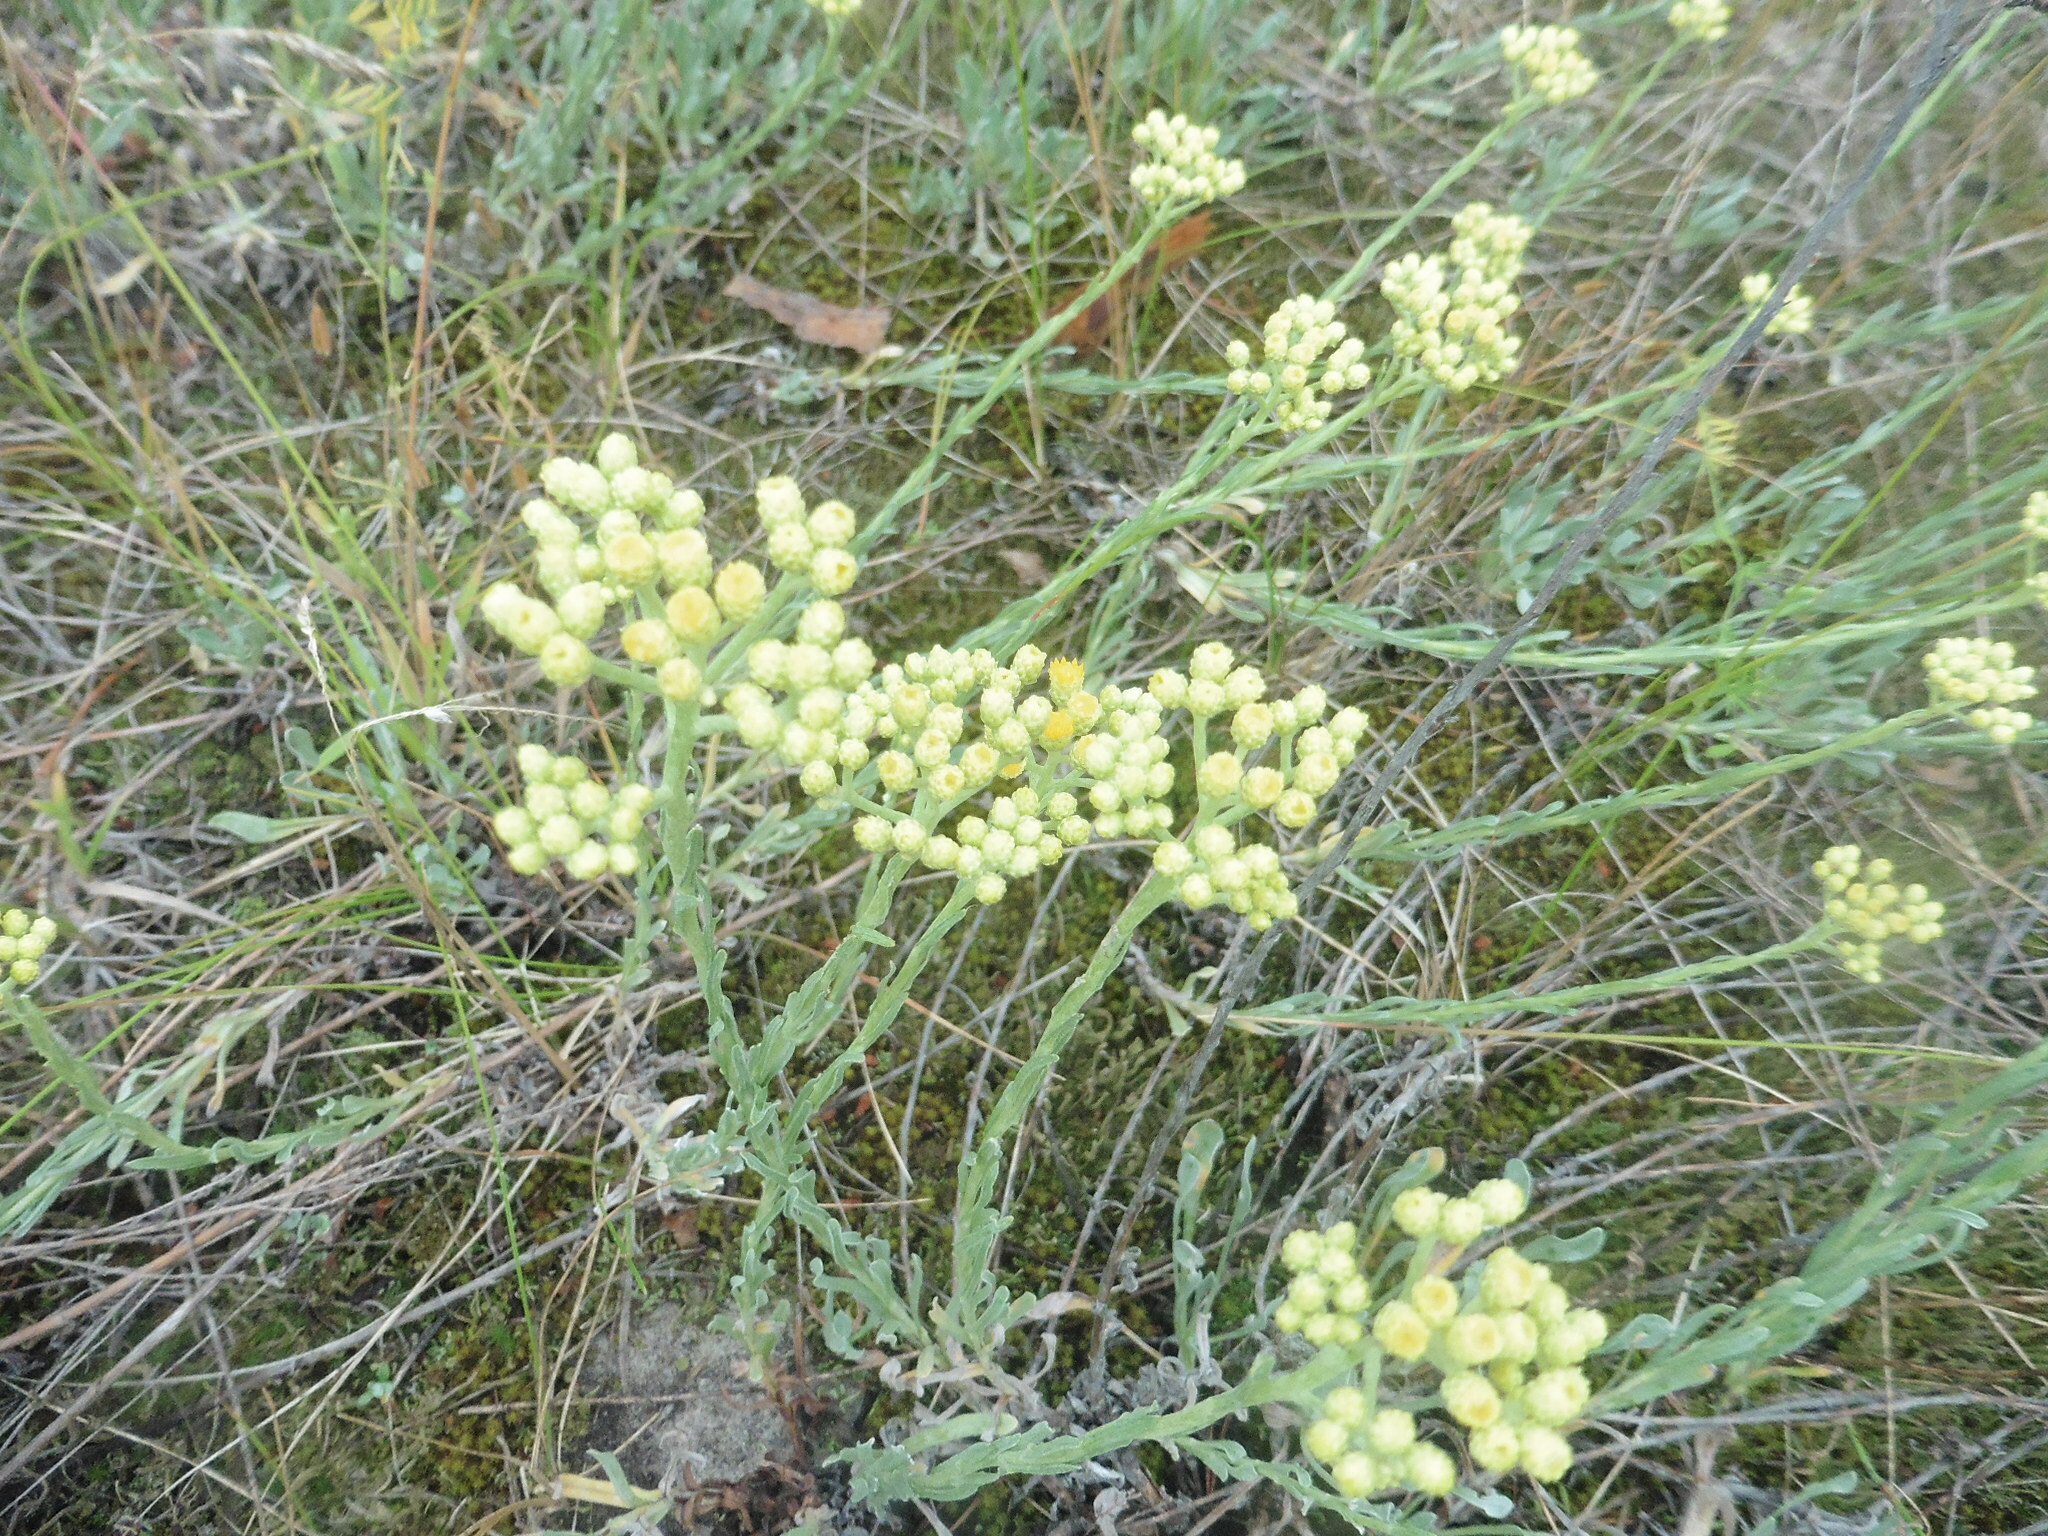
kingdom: Plantae
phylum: Tracheophyta
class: Magnoliopsida
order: Asterales
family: Asteraceae
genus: Helichrysum
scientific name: Helichrysum arenarium
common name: Strawflower
